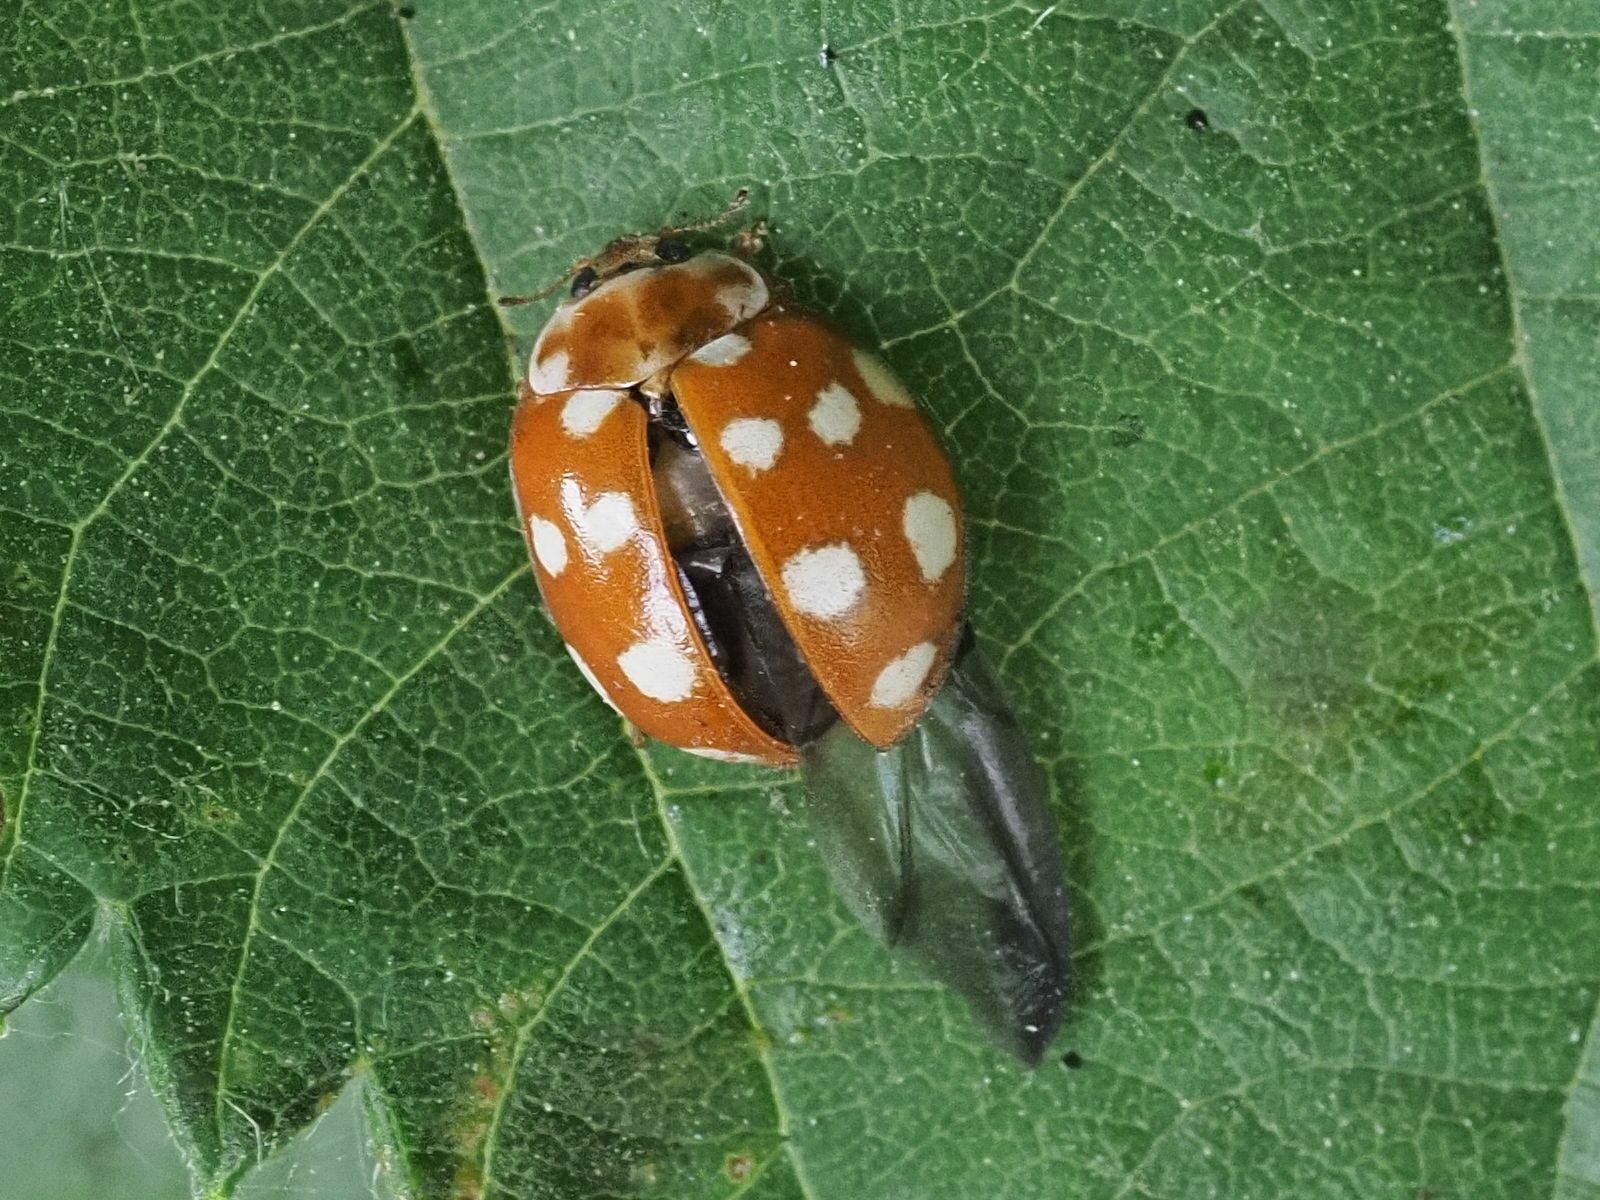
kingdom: Animalia
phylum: Arthropoda
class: Insecta
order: Coleoptera
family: Coccinellidae
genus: Calvia
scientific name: Calvia quatuordecimguttata
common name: Cream-spot ladybird
